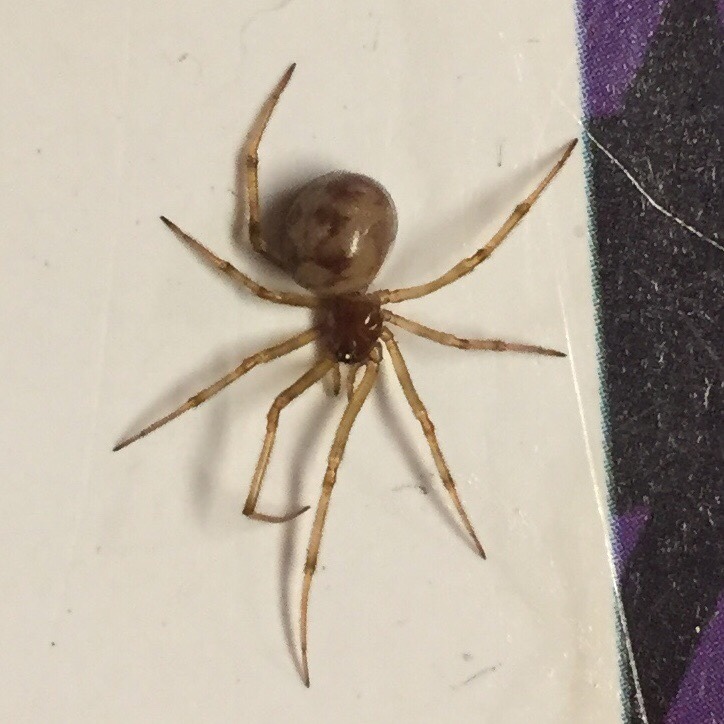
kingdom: Animalia
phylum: Arthropoda
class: Arachnida
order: Araneae
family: Theridiidae
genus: Steatoda
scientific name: Steatoda triangulosa
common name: Triangulate bud spider
